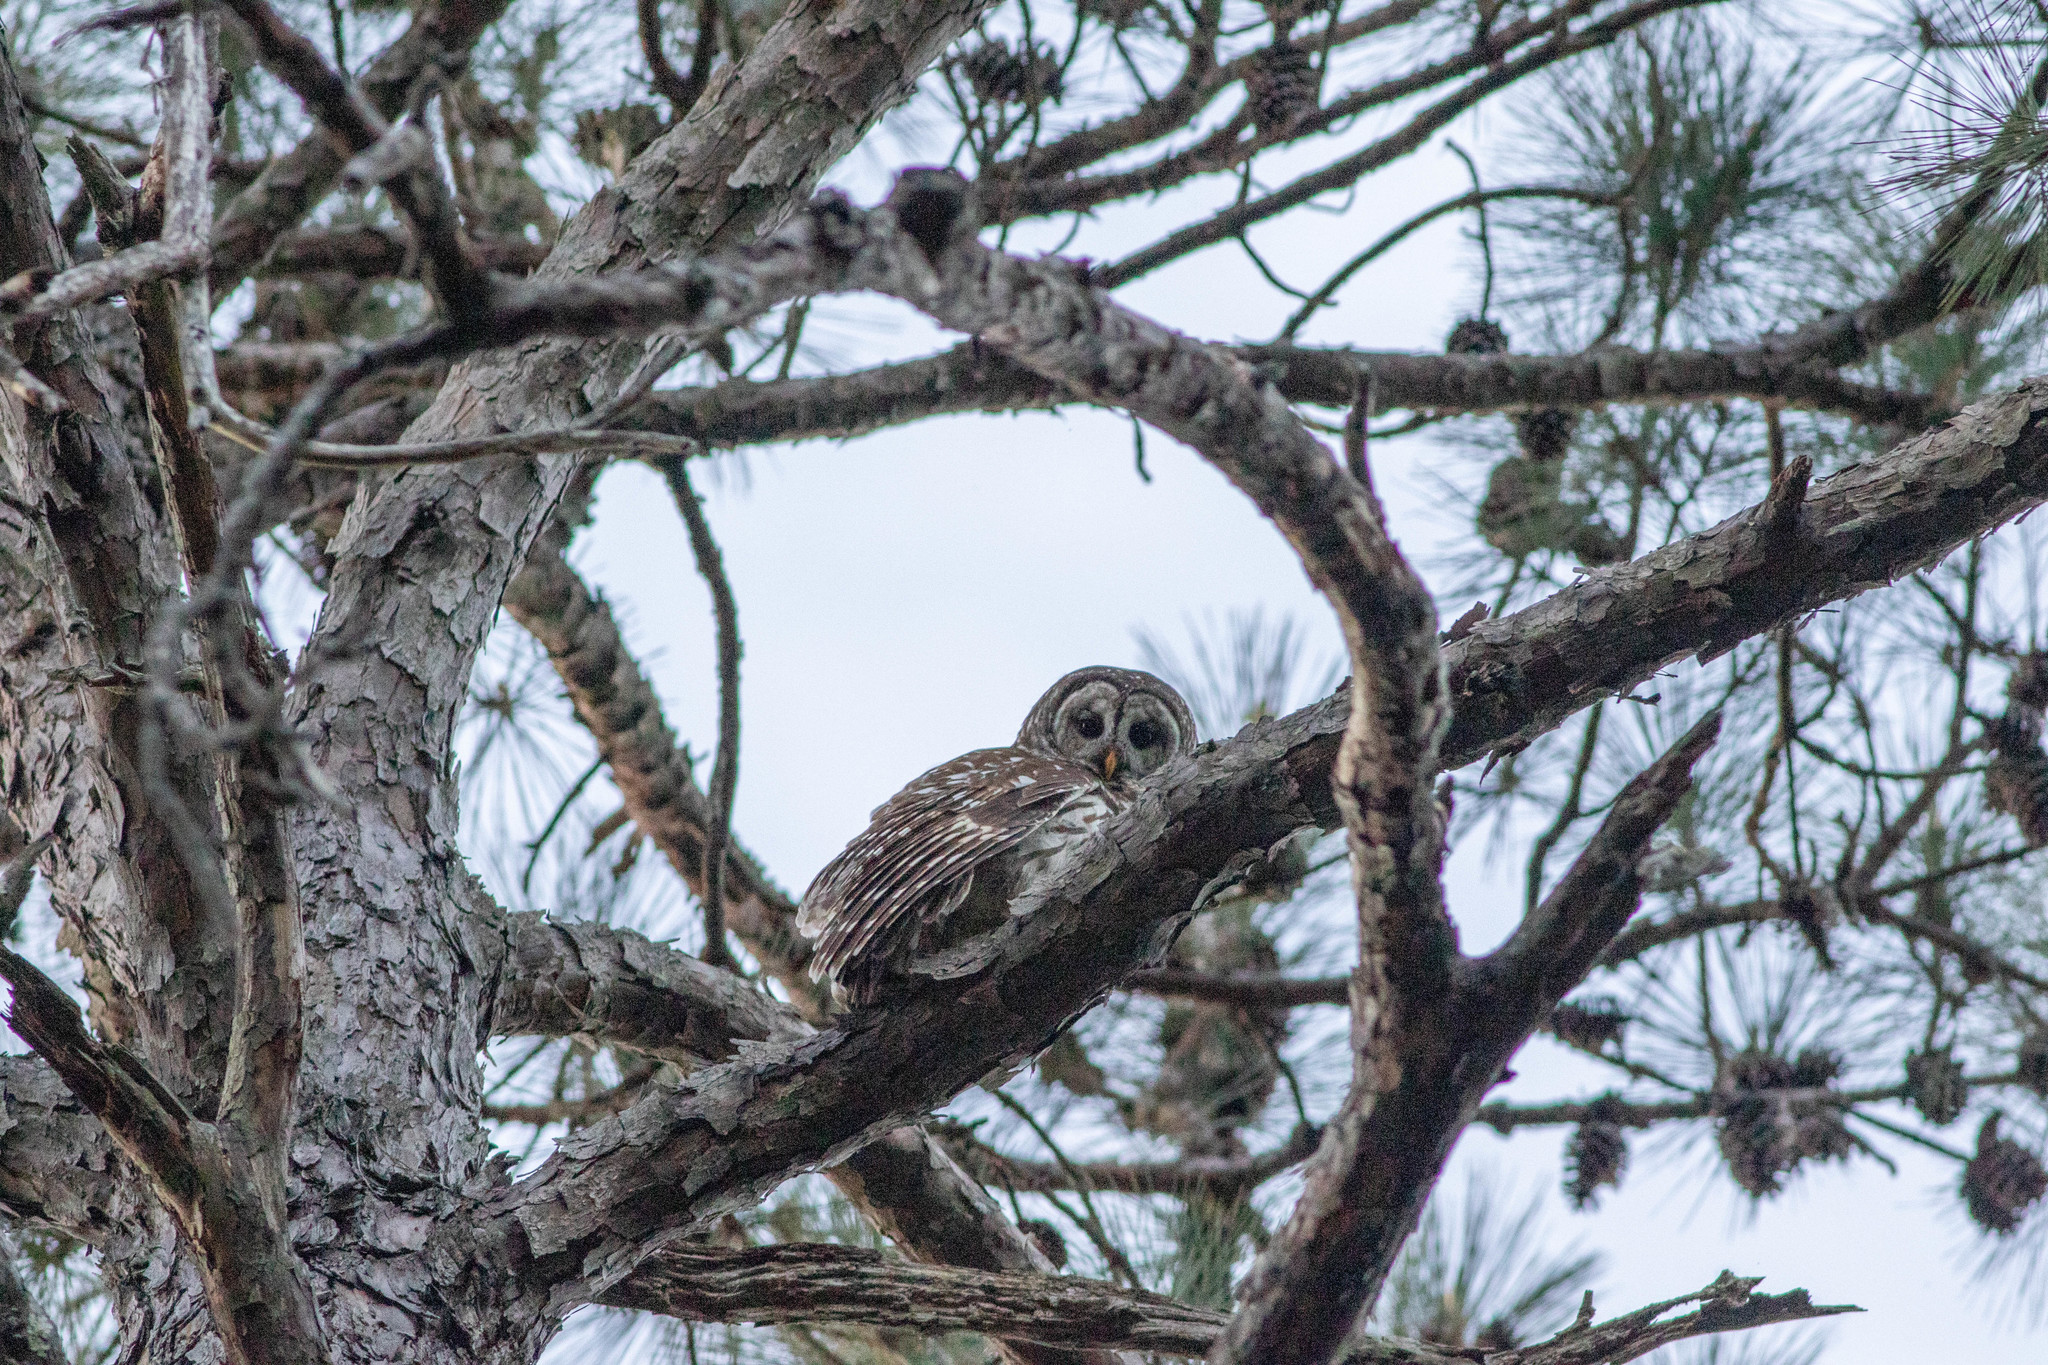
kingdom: Animalia
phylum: Chordata
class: Aves
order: Strigiformes
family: Strigidae
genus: Strix
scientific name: Strix varia
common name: Barred owl
